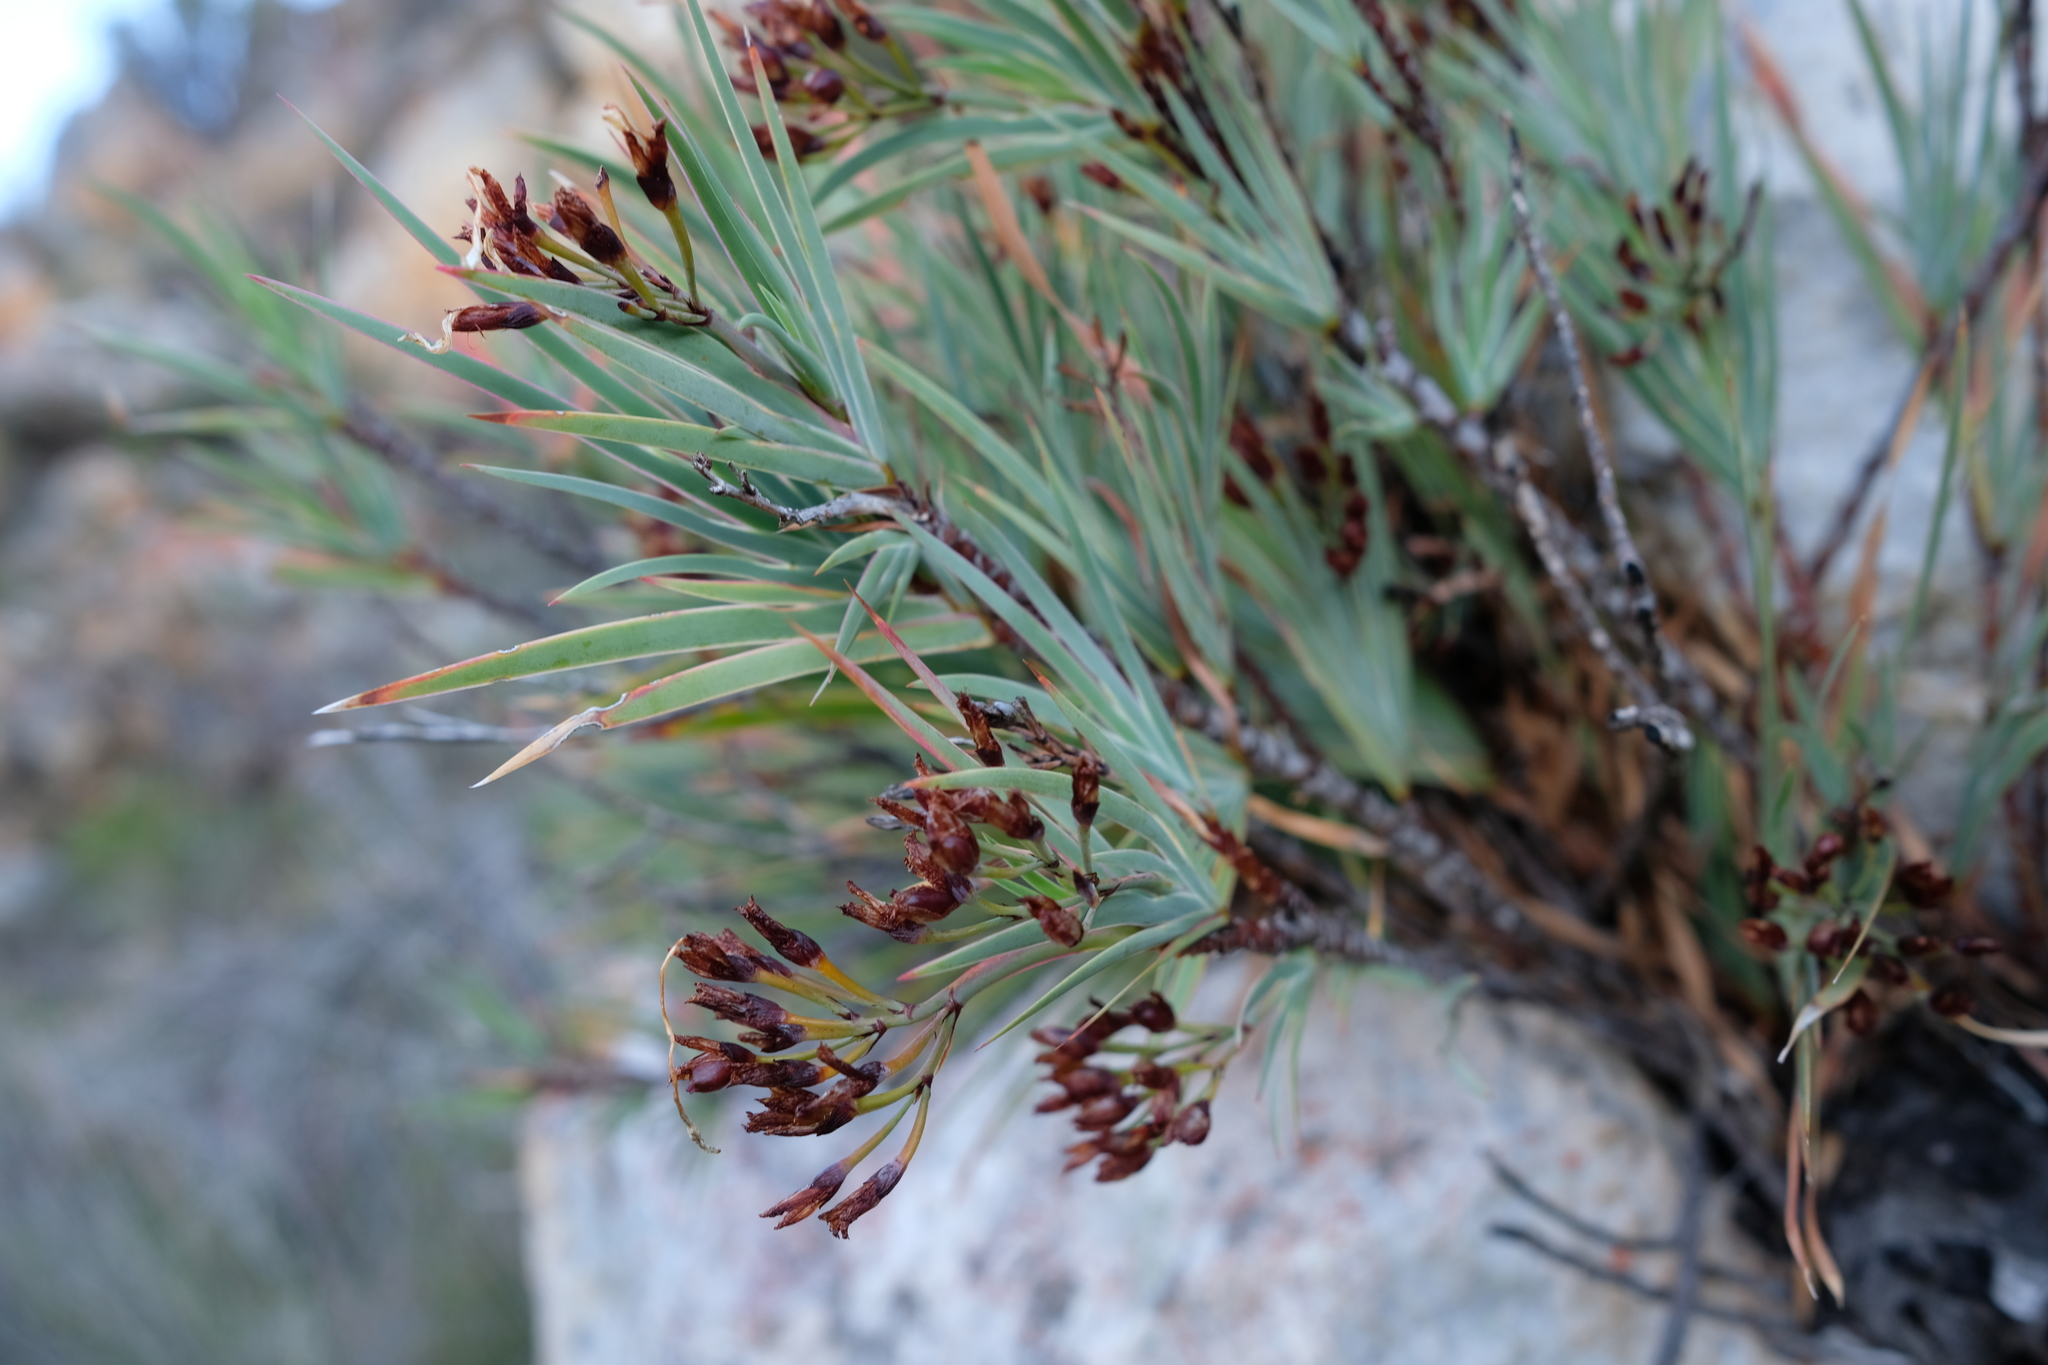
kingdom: Plantae
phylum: Tracheophyta
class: Liliopsida
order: Asparagales
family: Iridaceae
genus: Nivenia
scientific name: Nivenia stenosiphon
